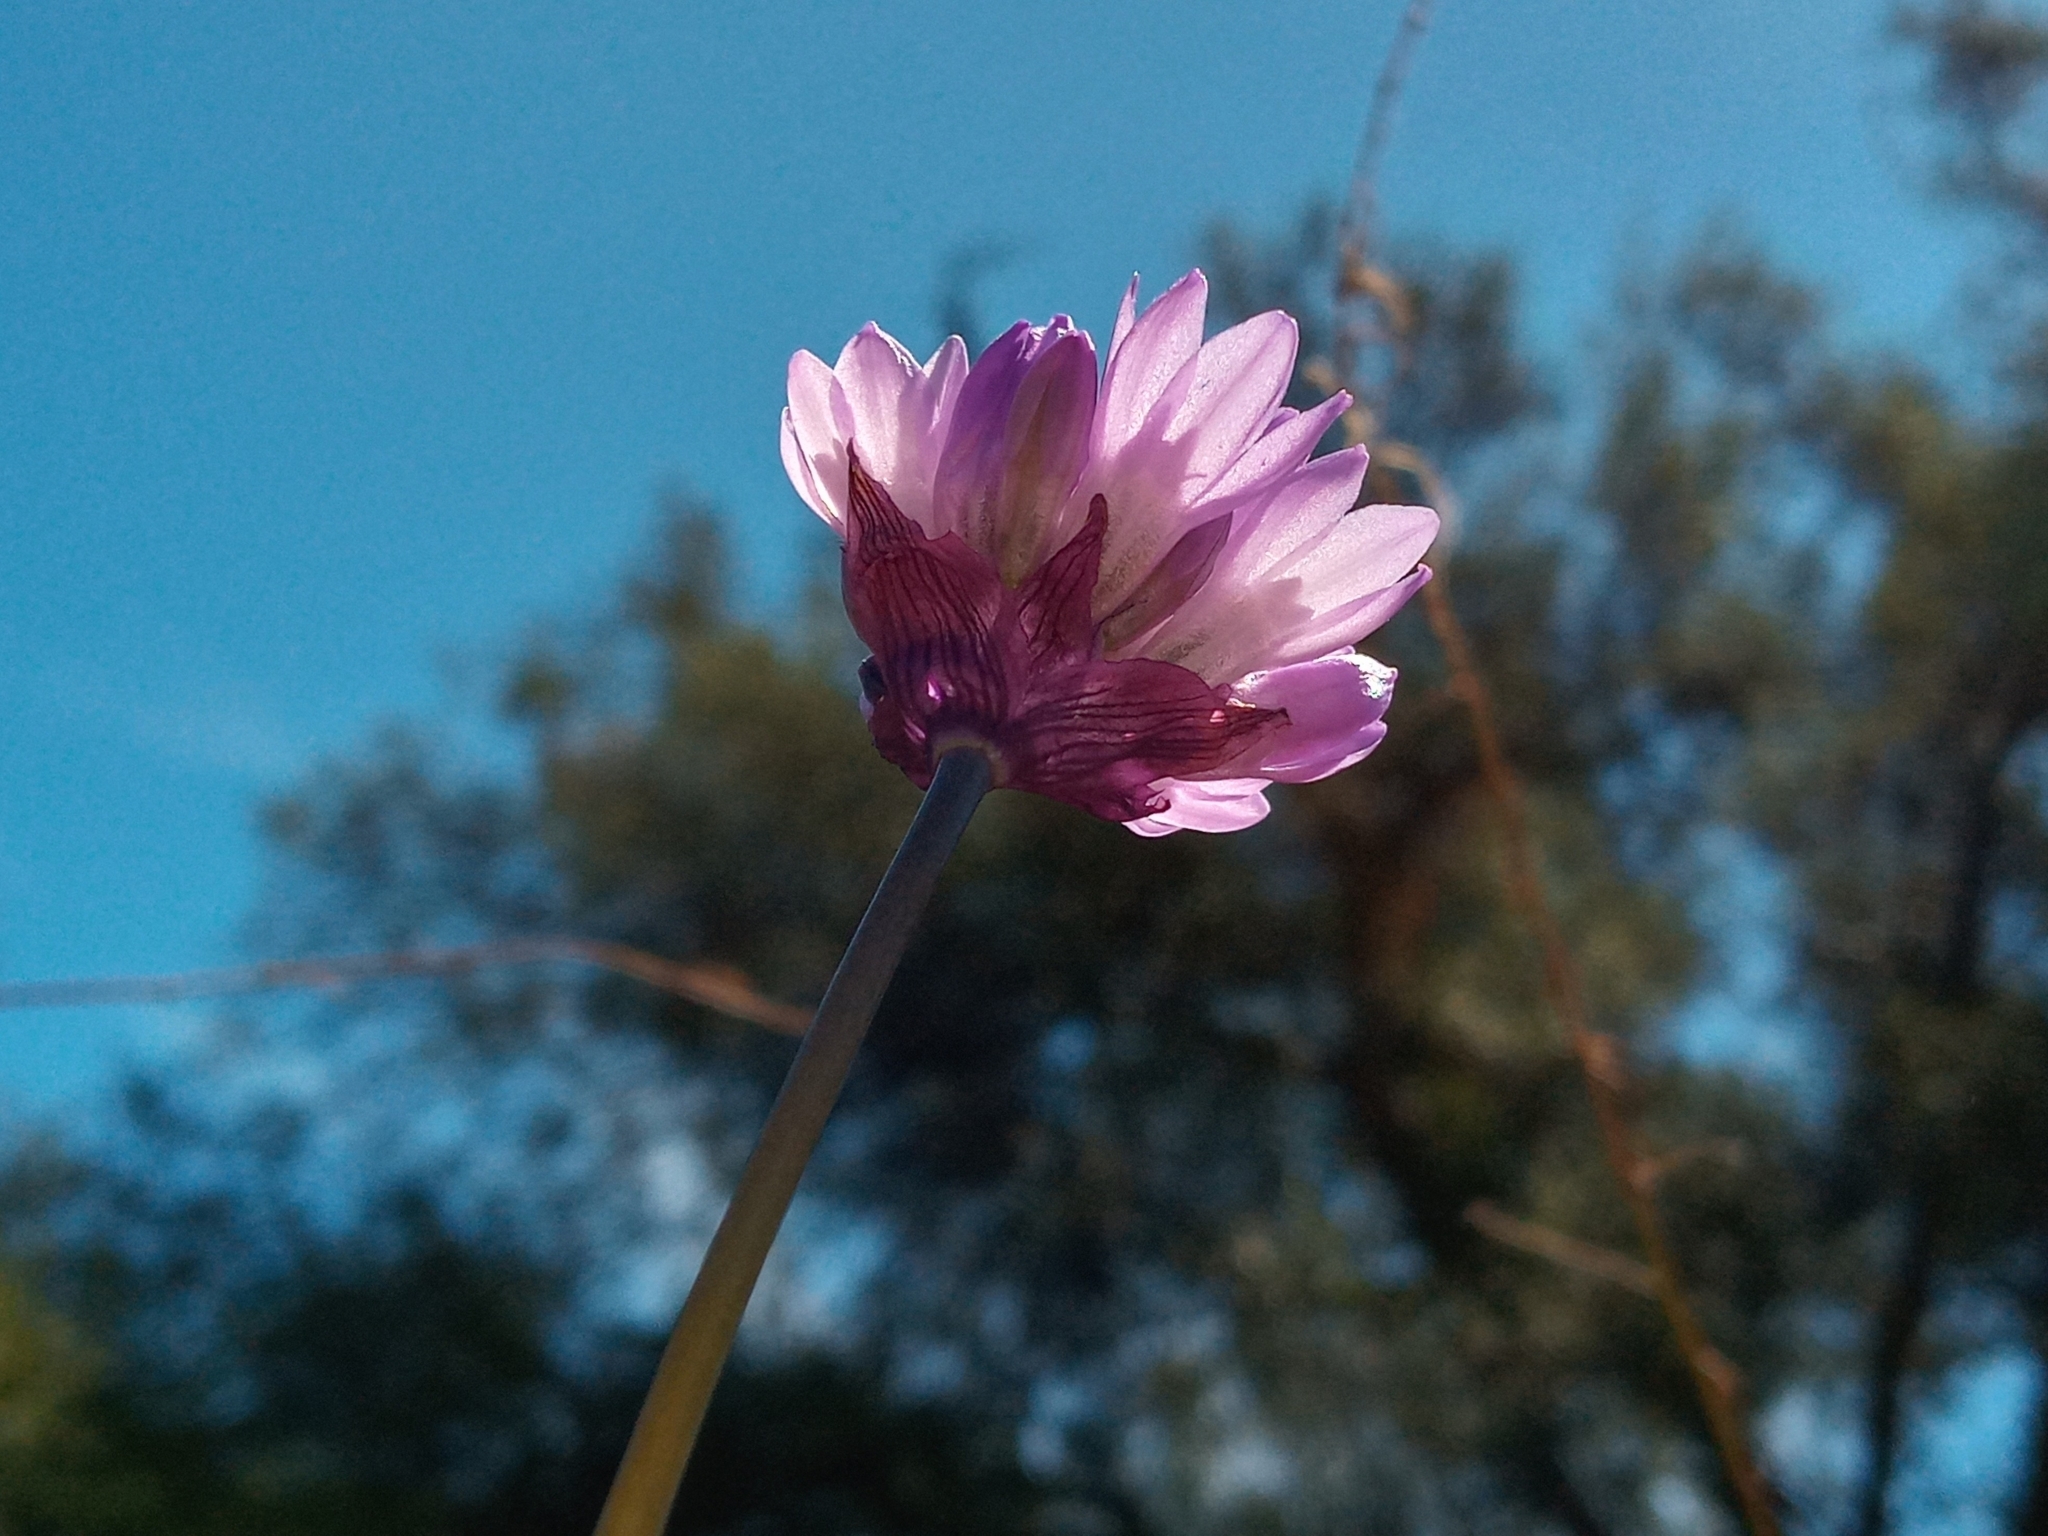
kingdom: Plantae
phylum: Tracheophyta
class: Liliopsida
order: Asparagales
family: Asparagaceae
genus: Dipterostemon
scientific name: Dipterostemon capitatus
